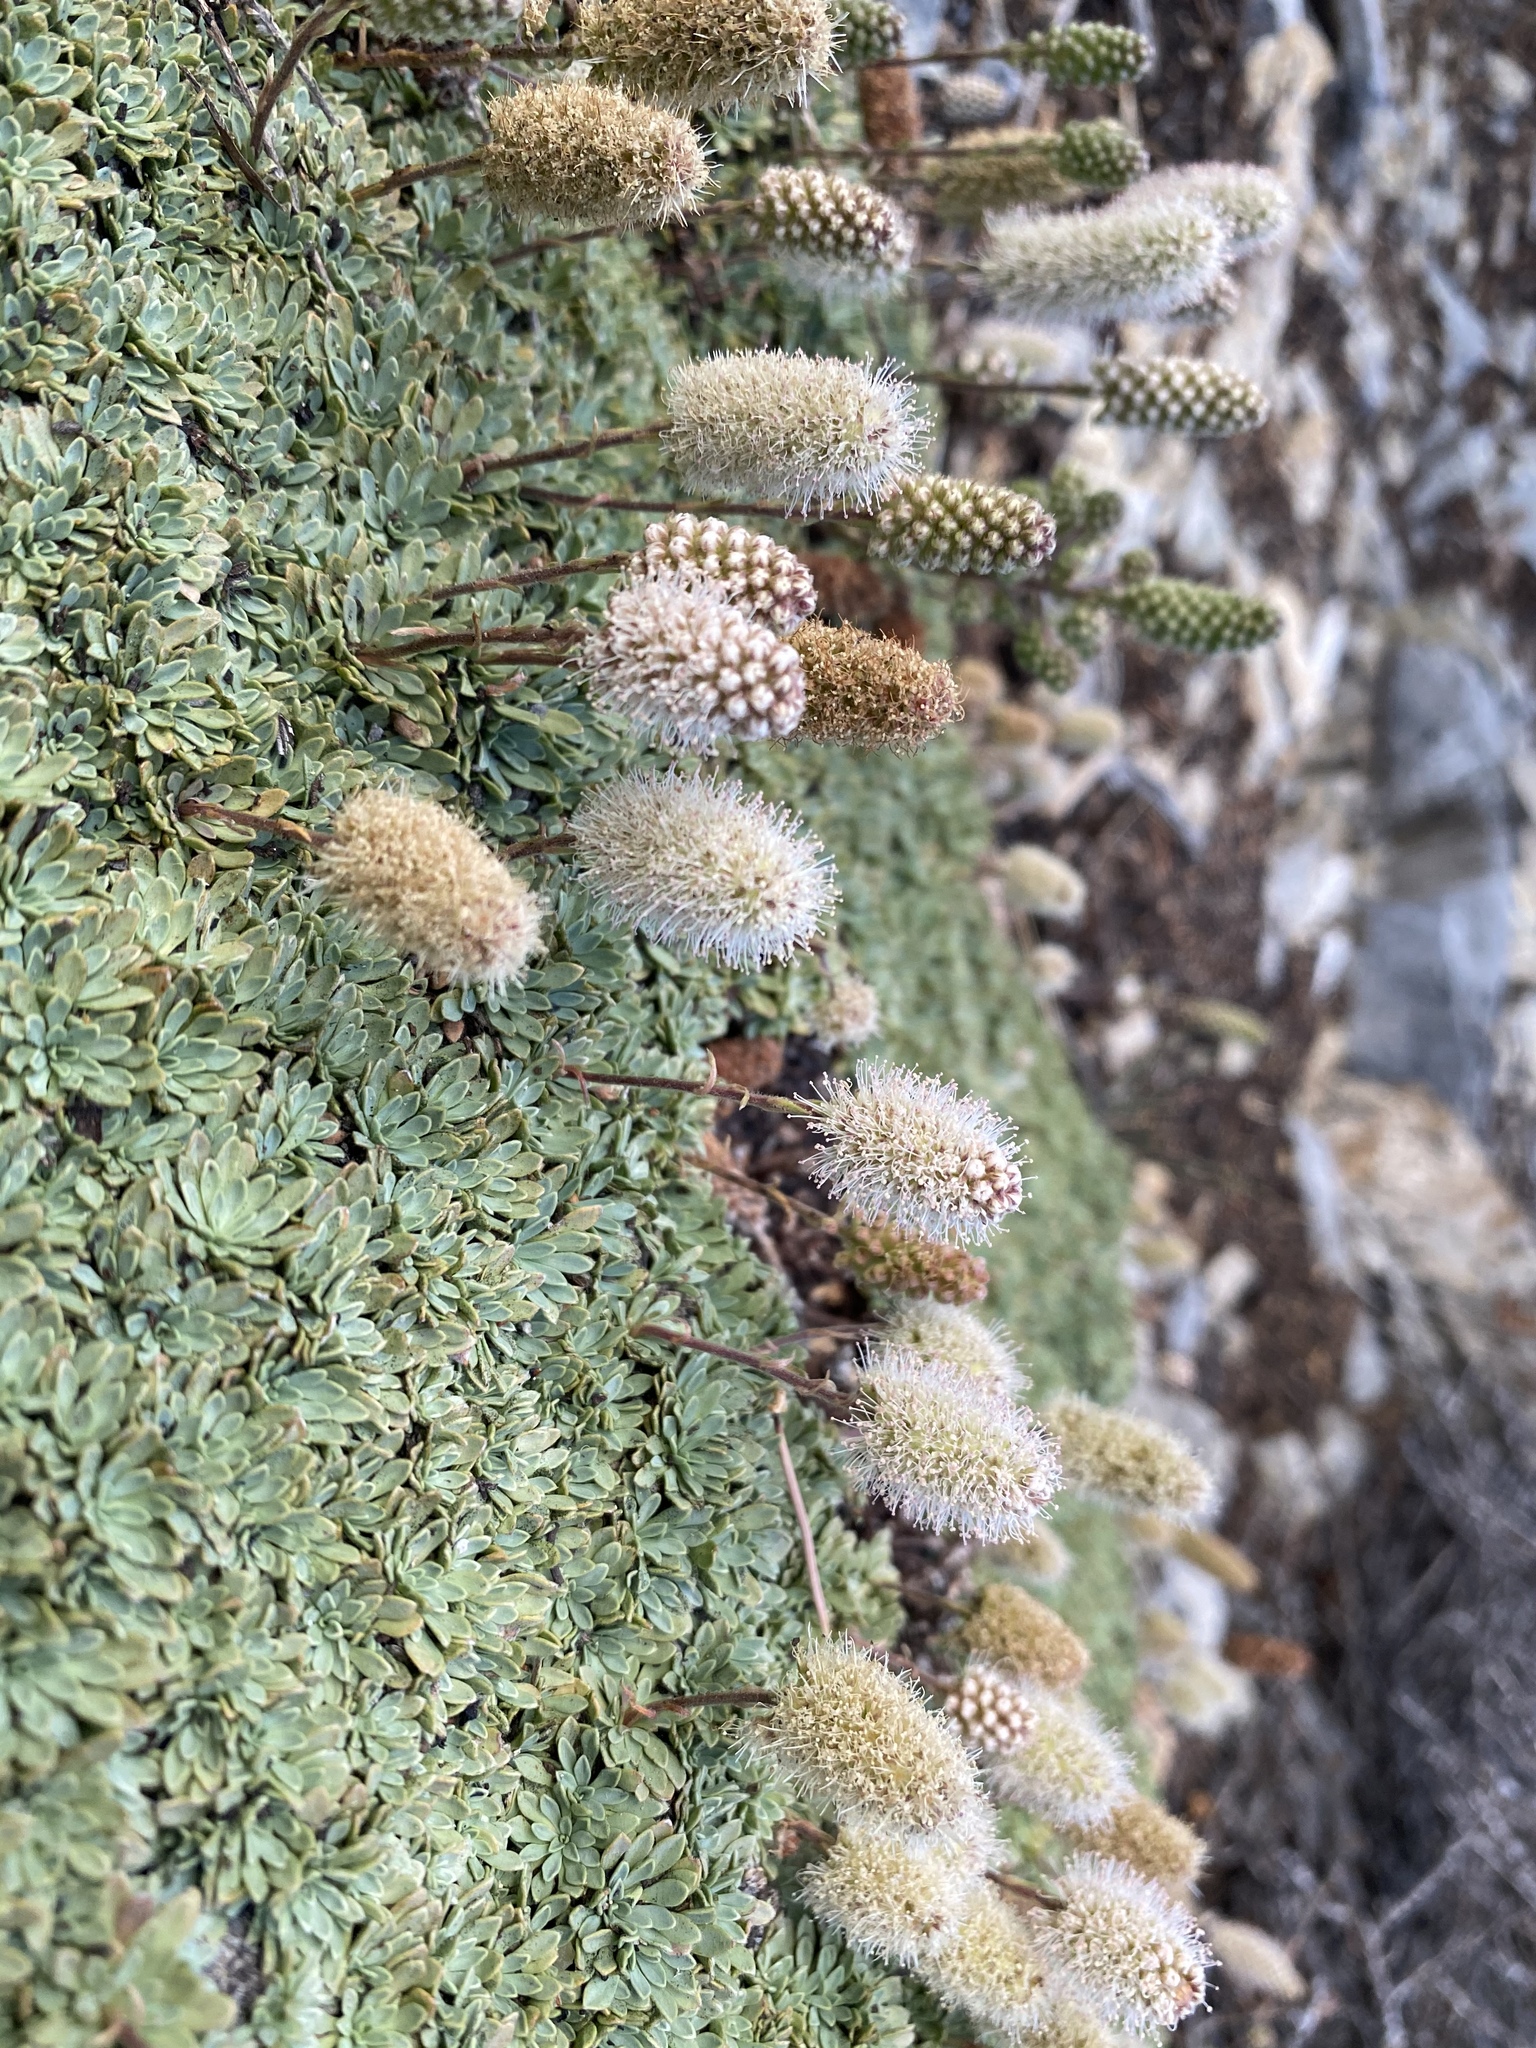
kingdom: Plantae
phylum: Tracheophyta
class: Magnoliopsida
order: Rosales
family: Rosaceae
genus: Petrophytum
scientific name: Petrophytum caespitosum
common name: Mat rockspirea
